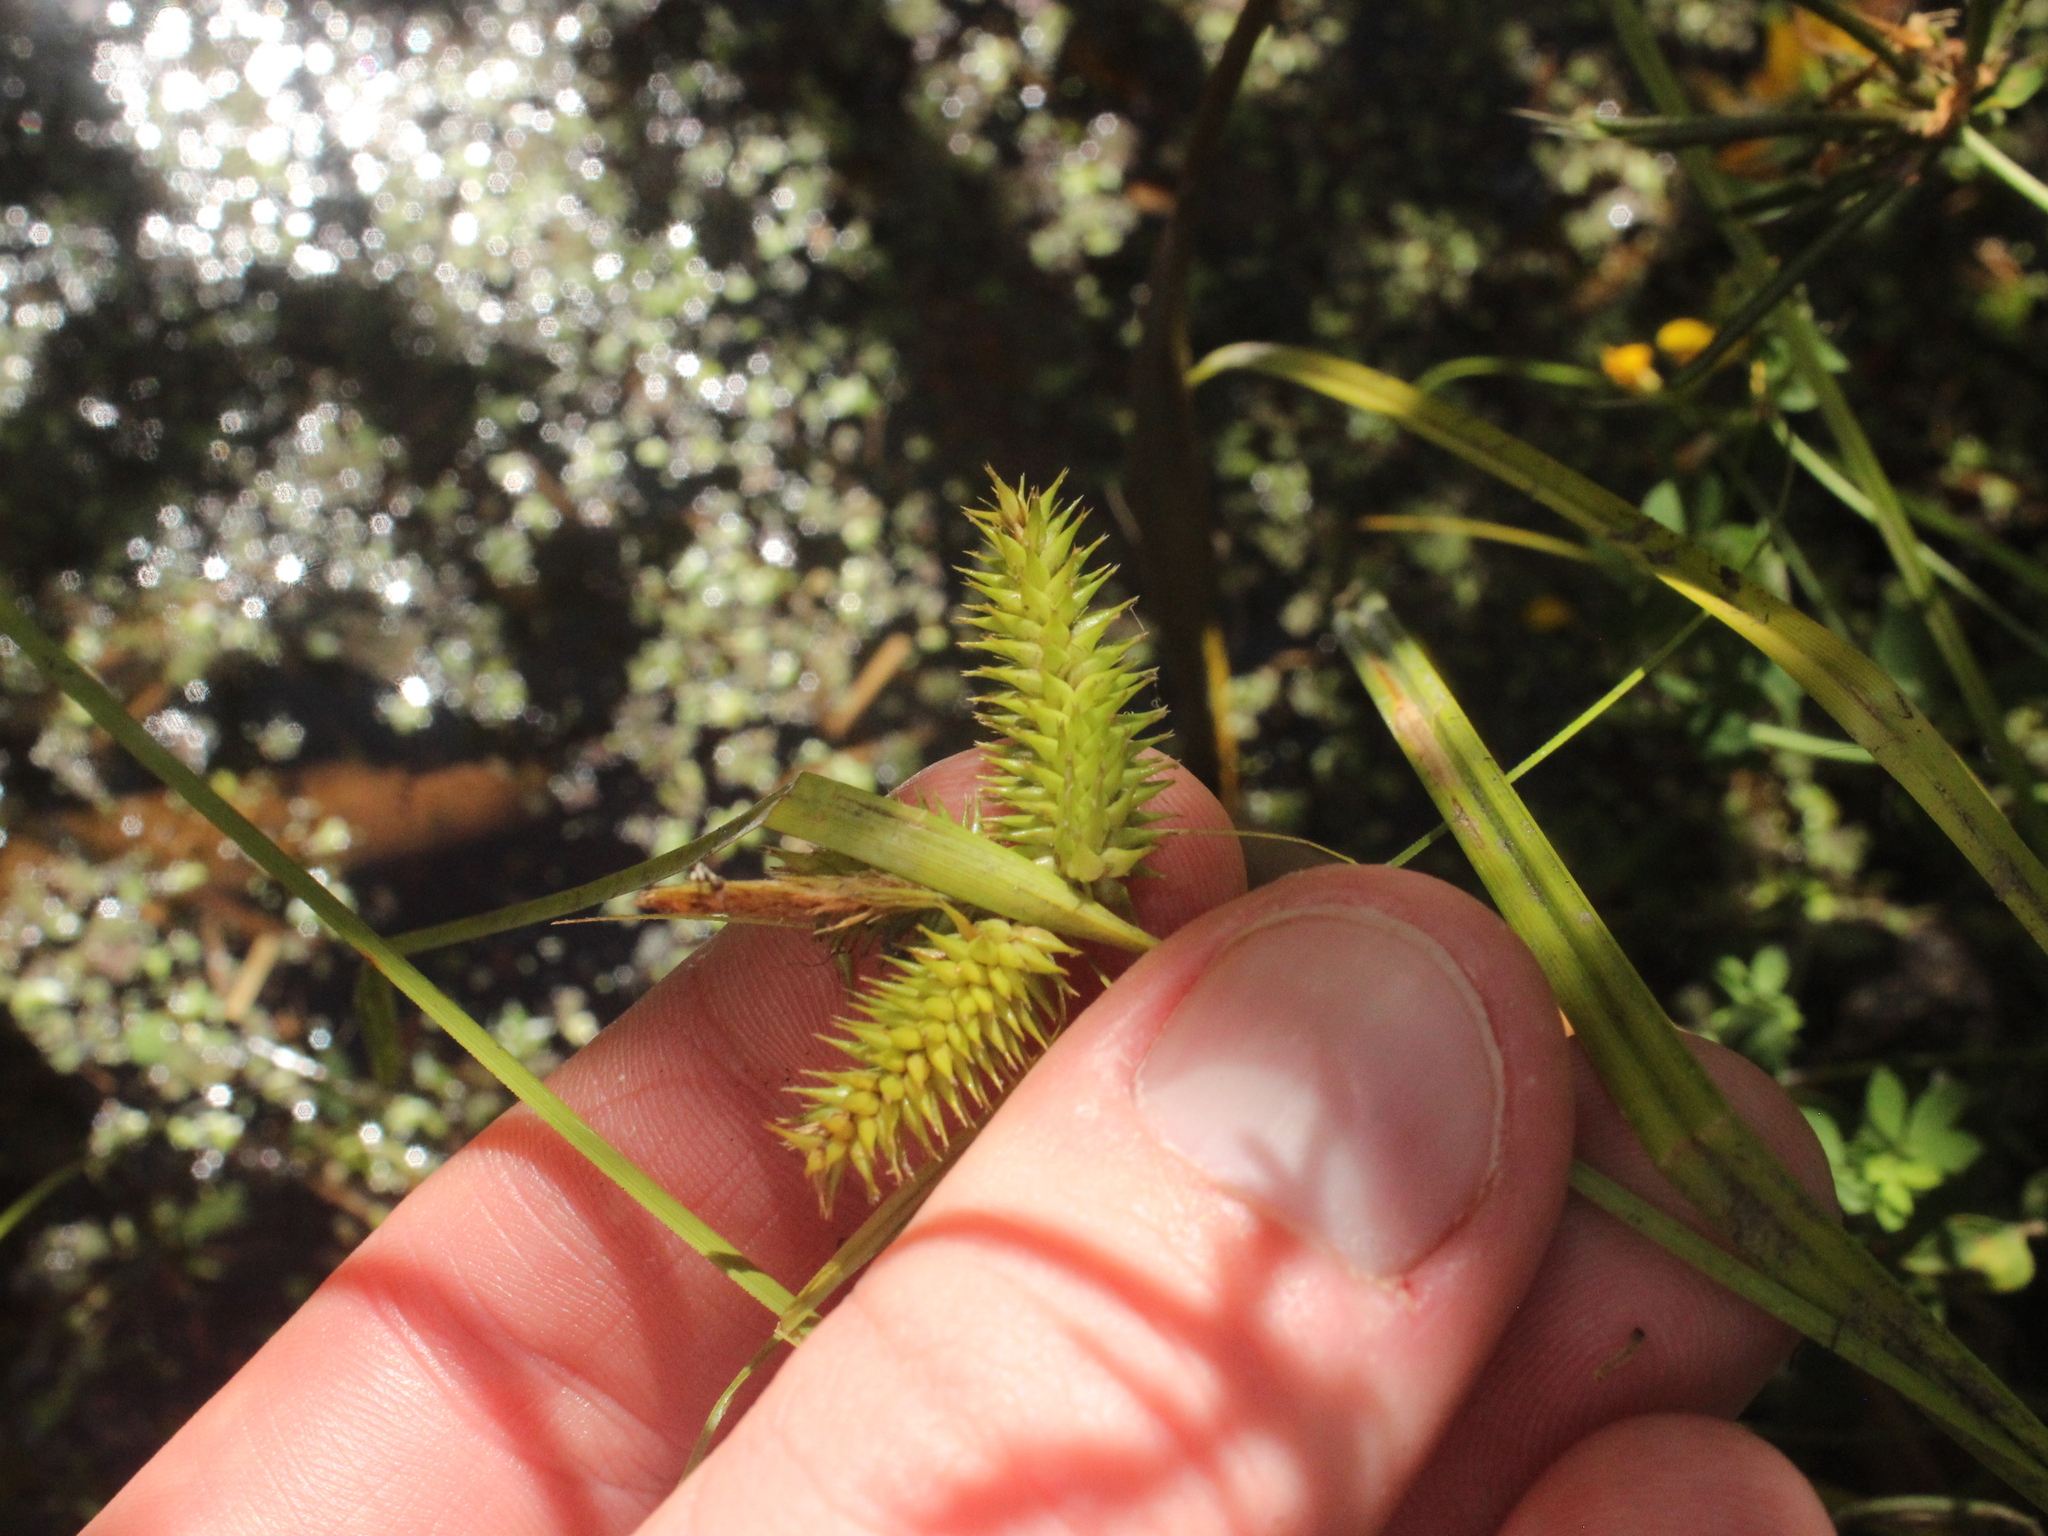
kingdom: Plantae
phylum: Tracheophyta
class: Liliopsida
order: Poales
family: Cyperaceae
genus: Carex
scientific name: Carex maorica
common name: Maori sedge
